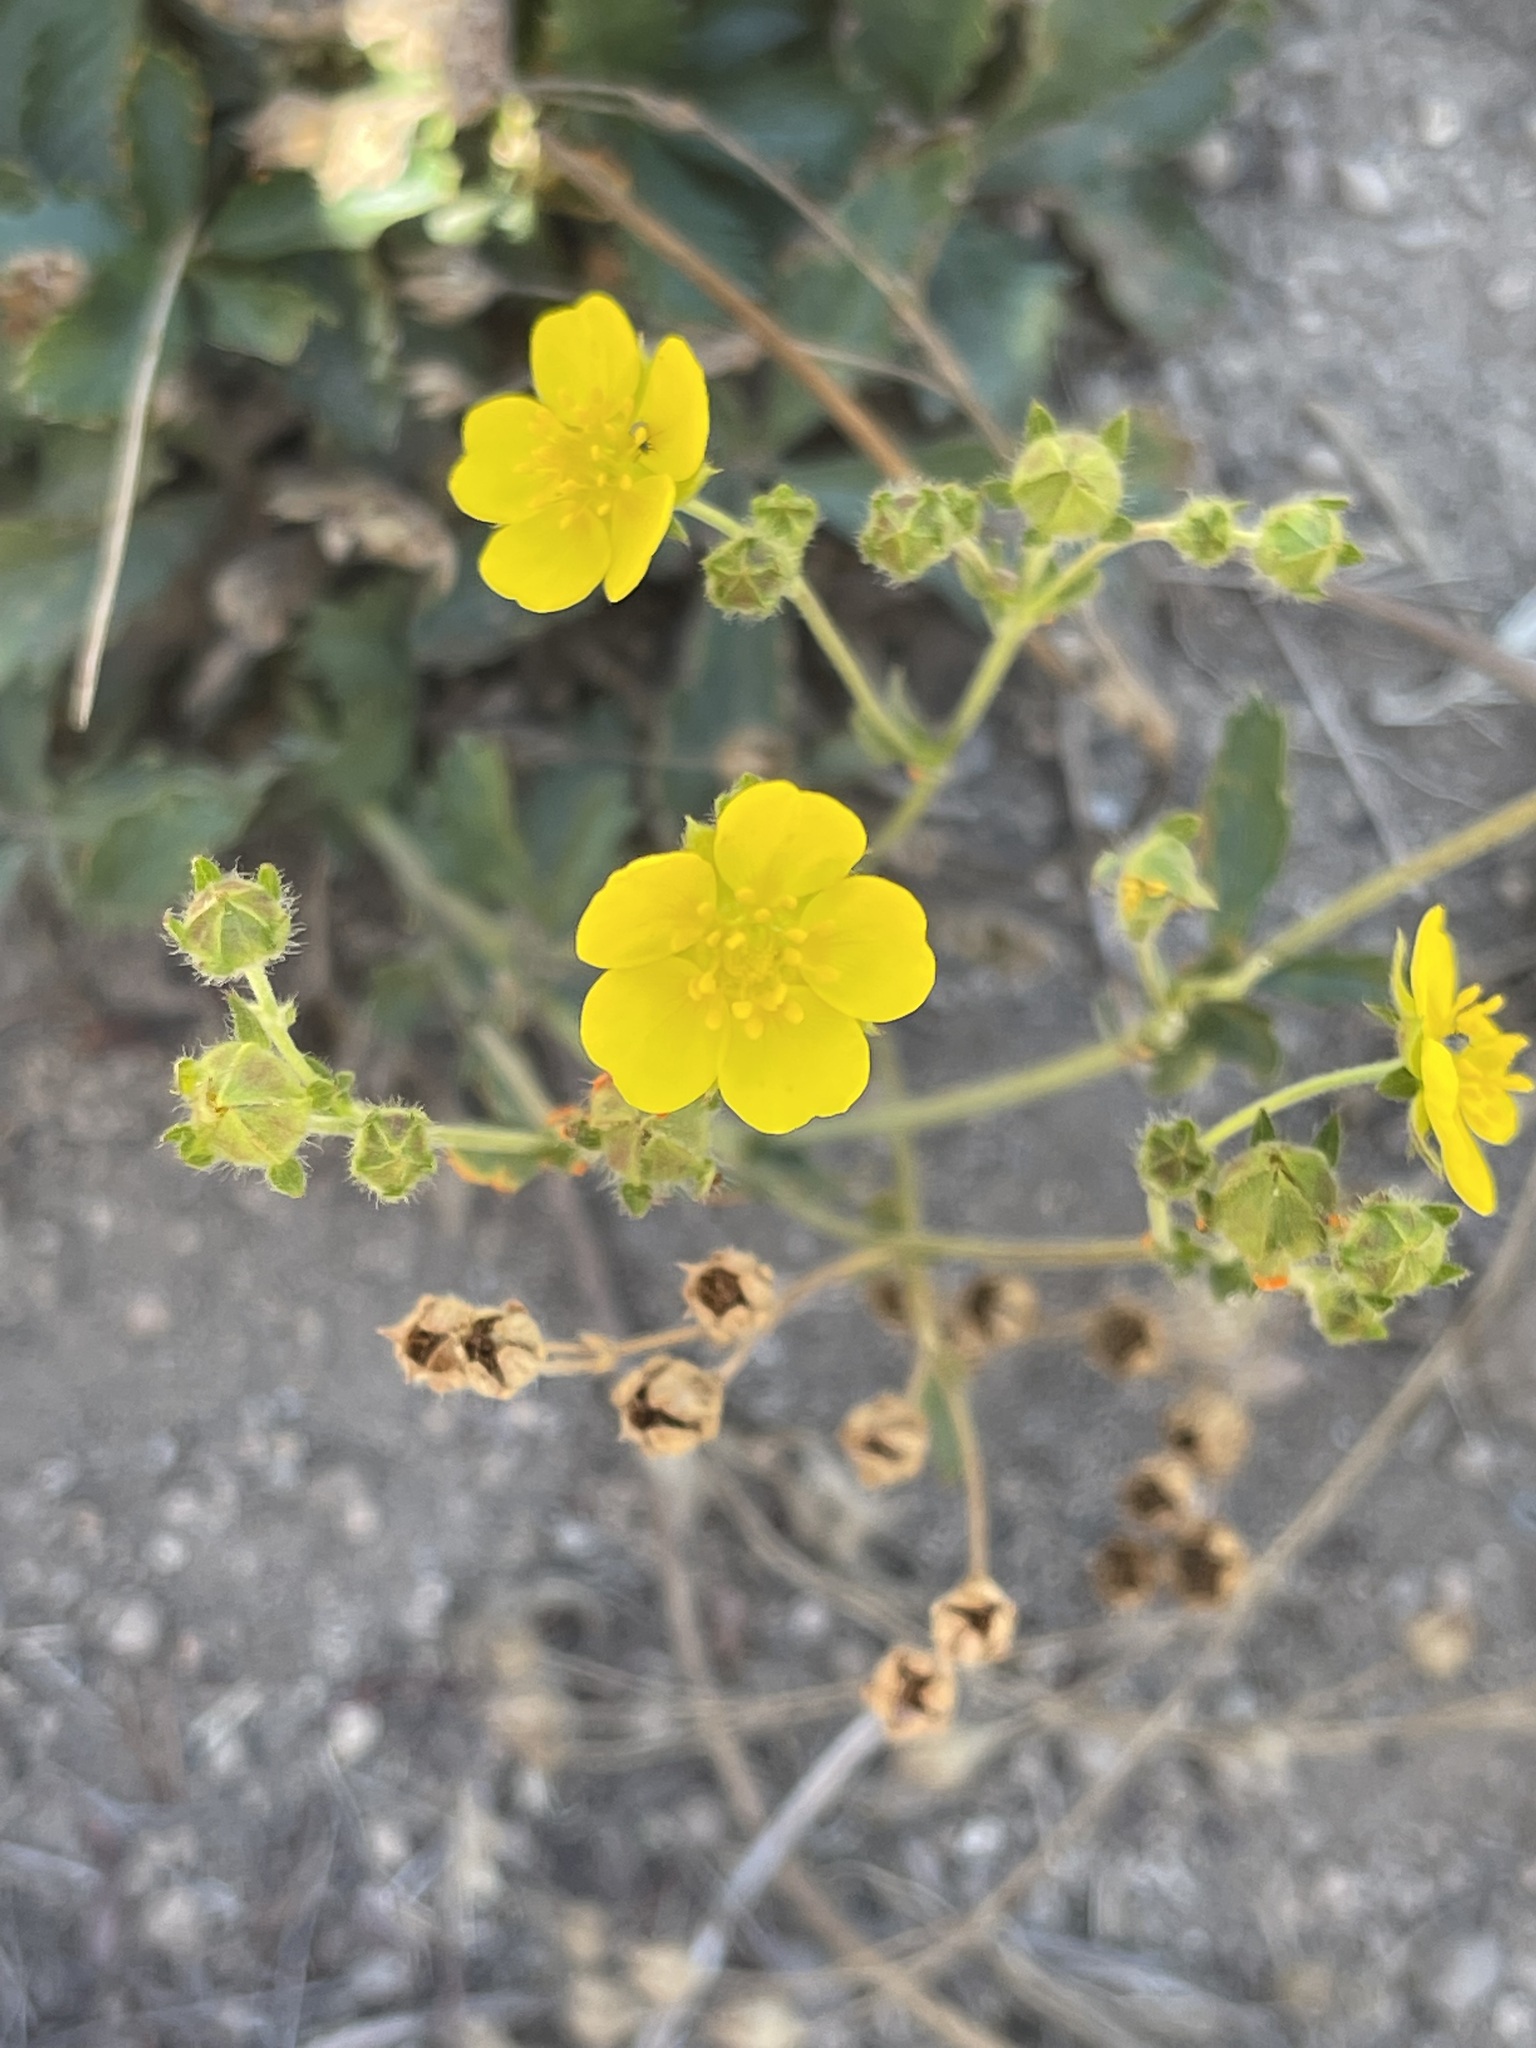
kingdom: Plantae
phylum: Tracheophyta
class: Magnoliopsida
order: Rosales
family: Rosaceae
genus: Potentilla
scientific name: Potentilla gracilis
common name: Graceful cinquefoil
